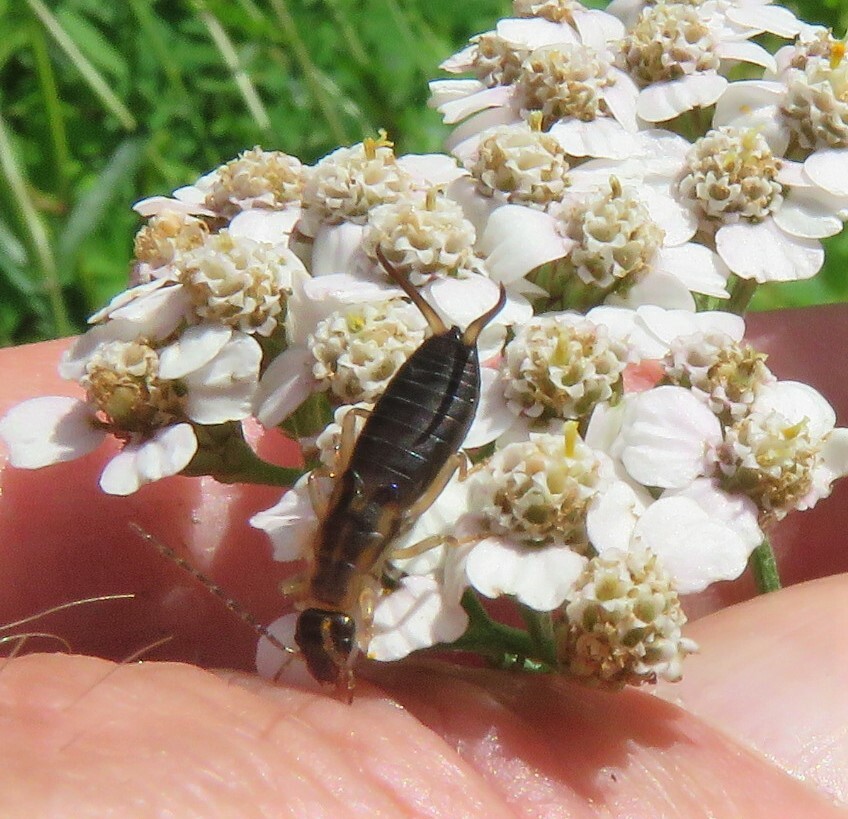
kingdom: Animalia
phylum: Arthropoda
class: Insecta
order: Dermaptera
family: Forficulidae
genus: Forficula
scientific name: Forficula
